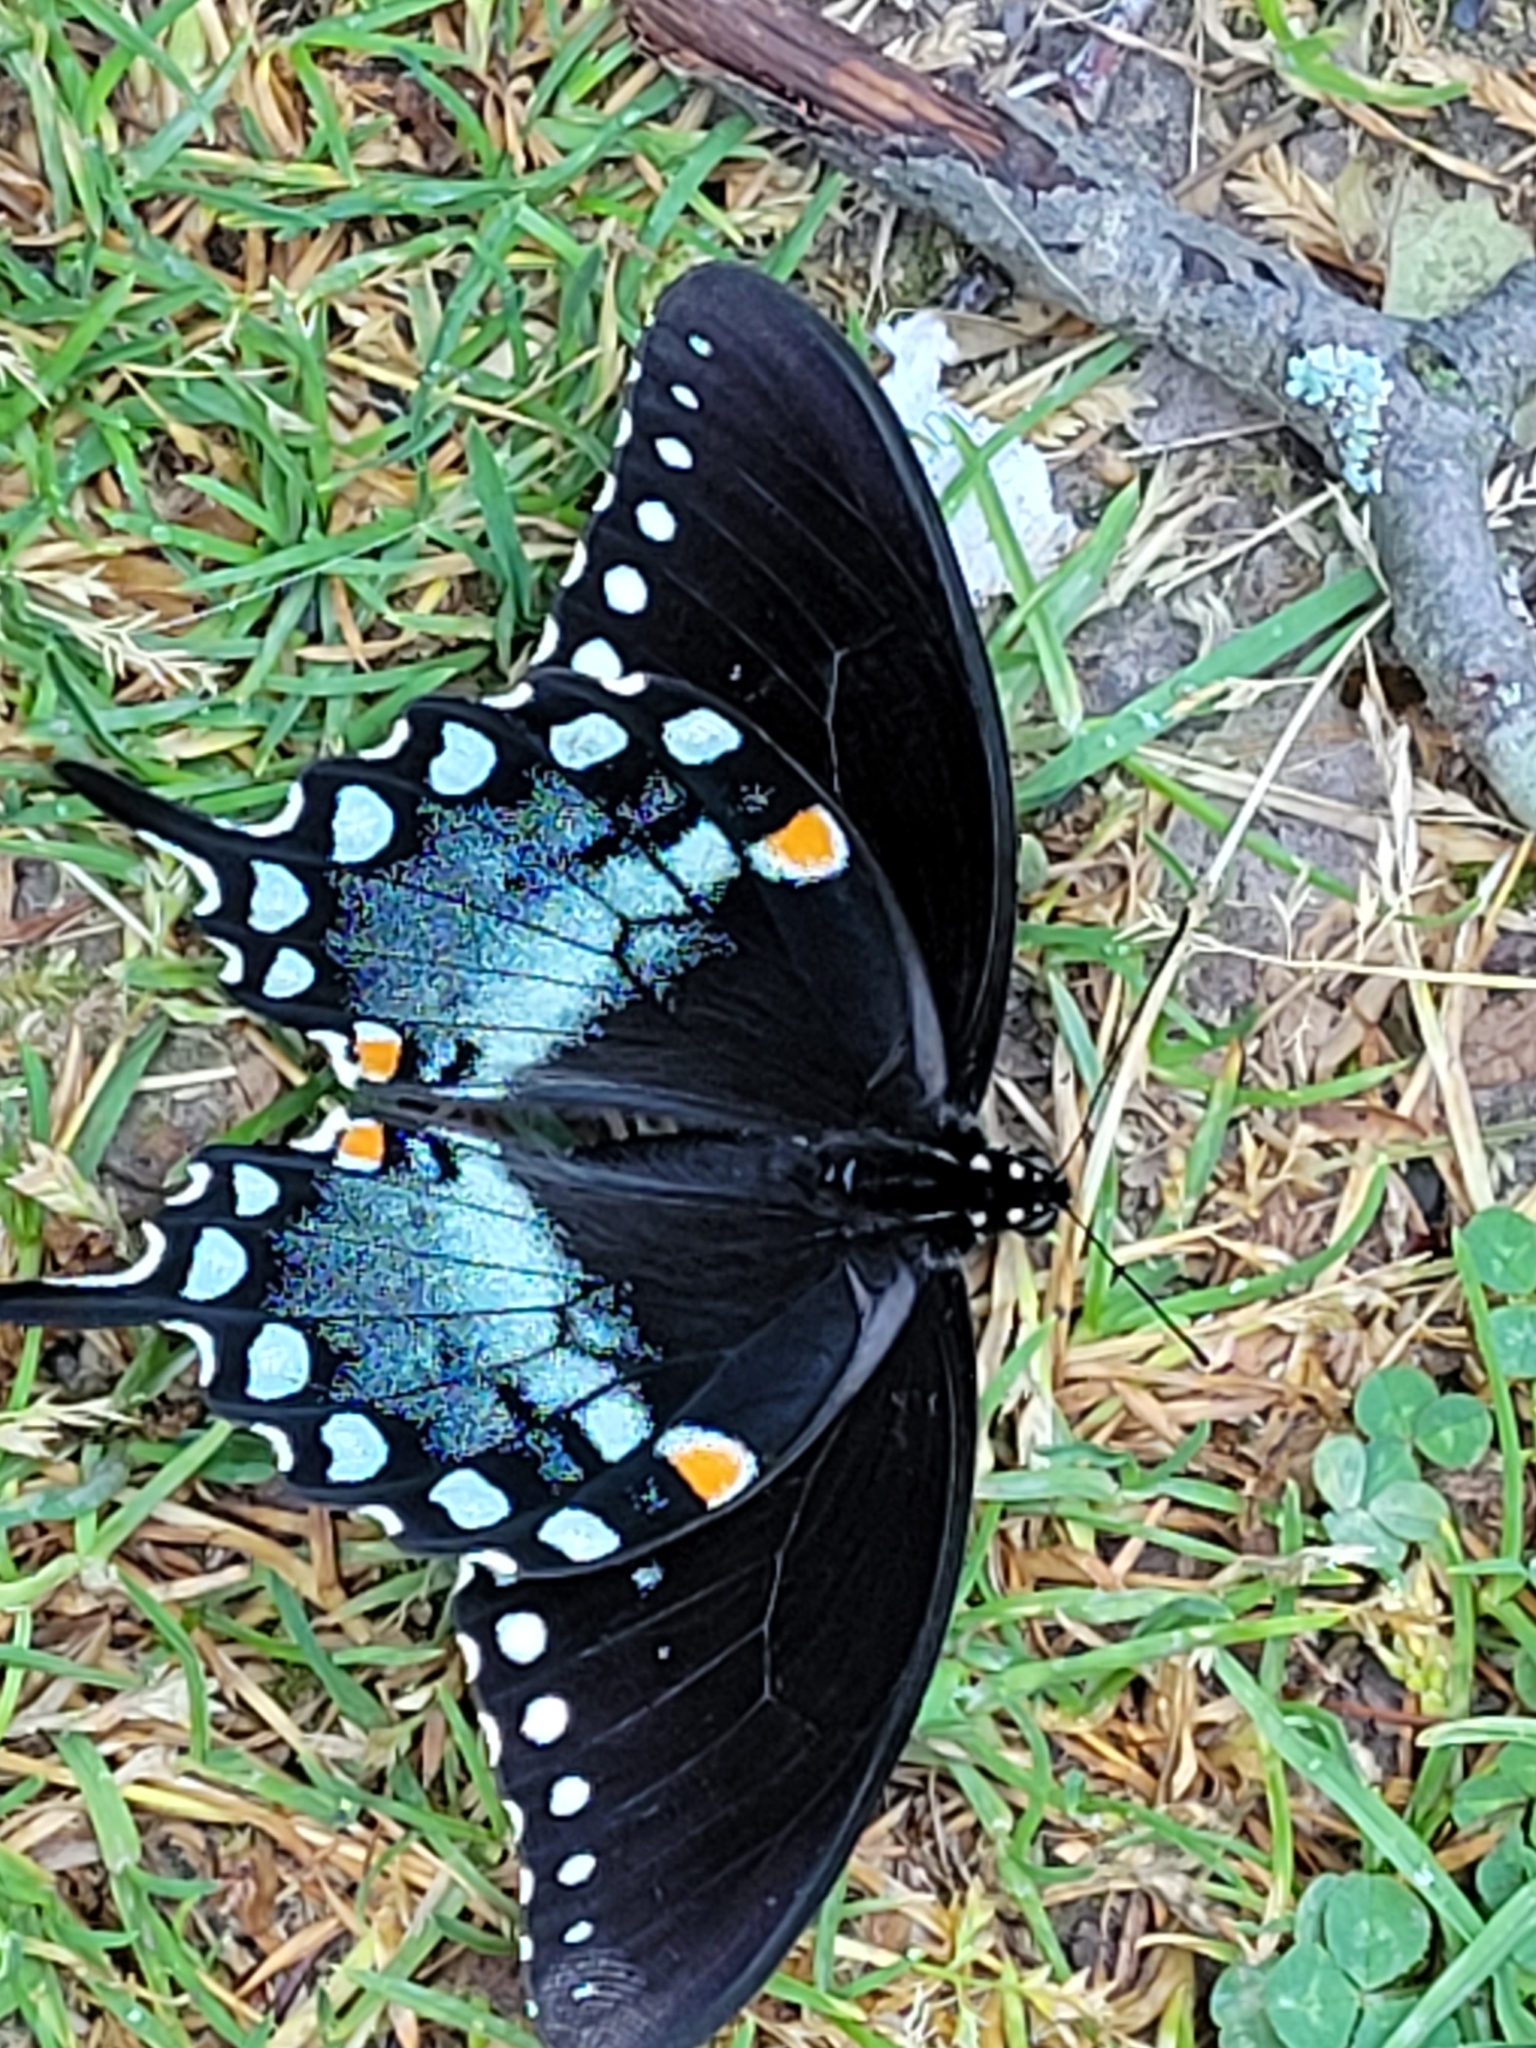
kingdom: Animalia
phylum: Arthropoda
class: Insecta
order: Lepidoptera
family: Papilionidae
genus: Papilio
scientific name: Papilio troilus
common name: Spicebush swallowtail
